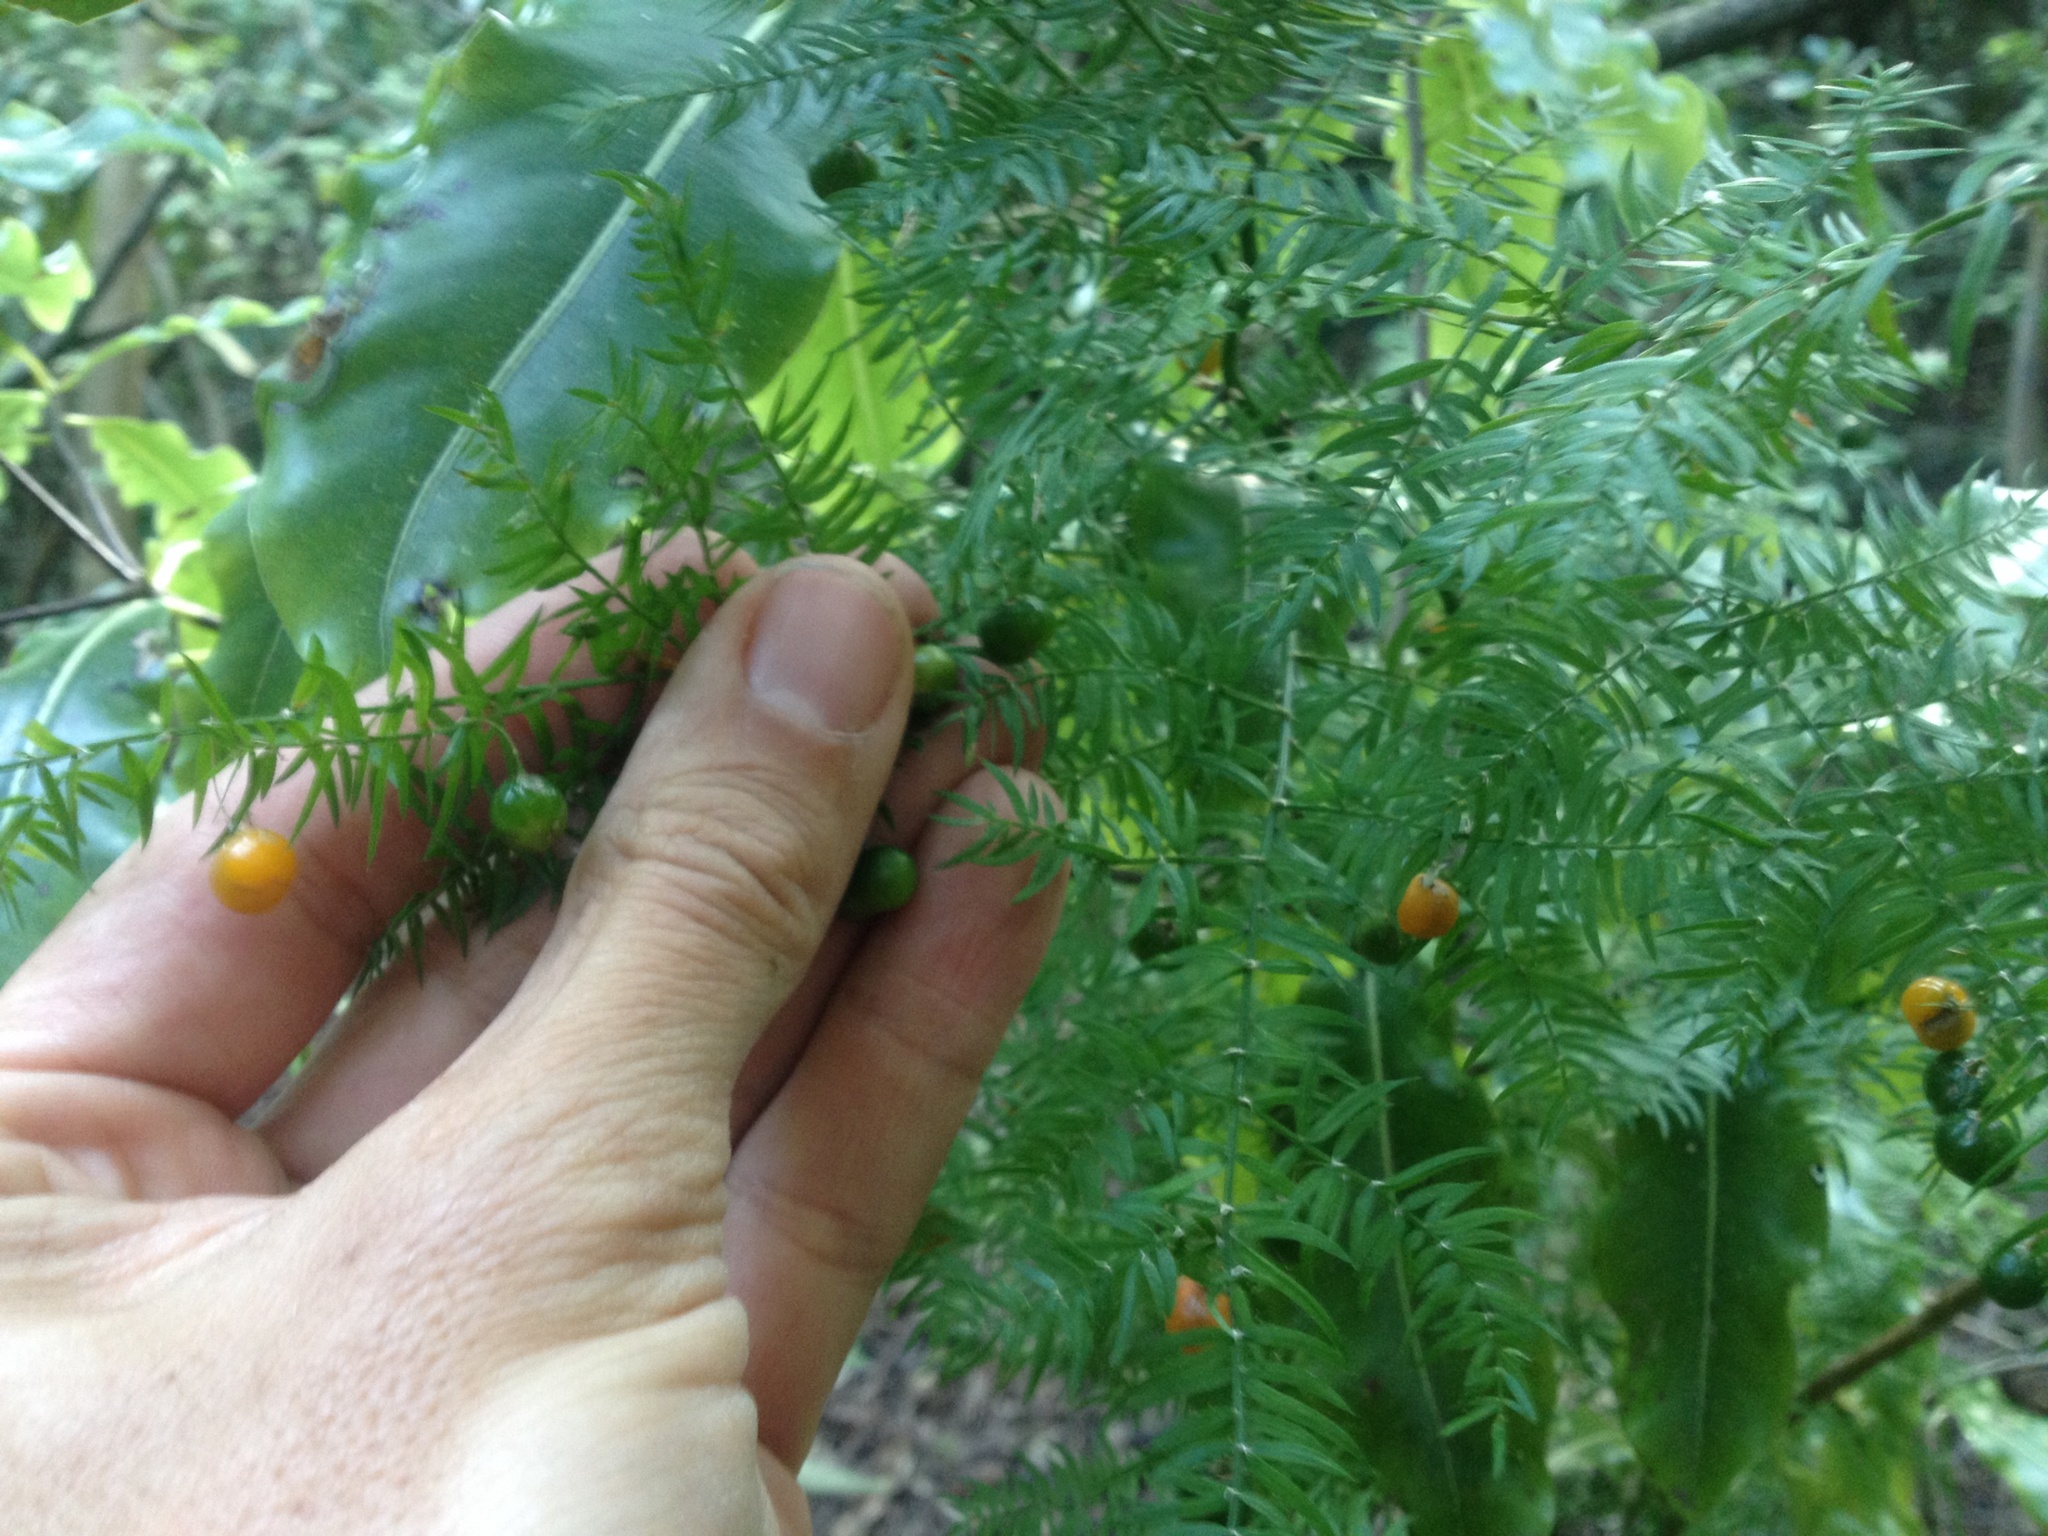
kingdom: Plantae
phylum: Tracheophyta
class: Liliopsida
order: Asparagales
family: Asparagaceae
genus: Asparagus
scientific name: Asparagus scandens
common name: Asparagus-fern
